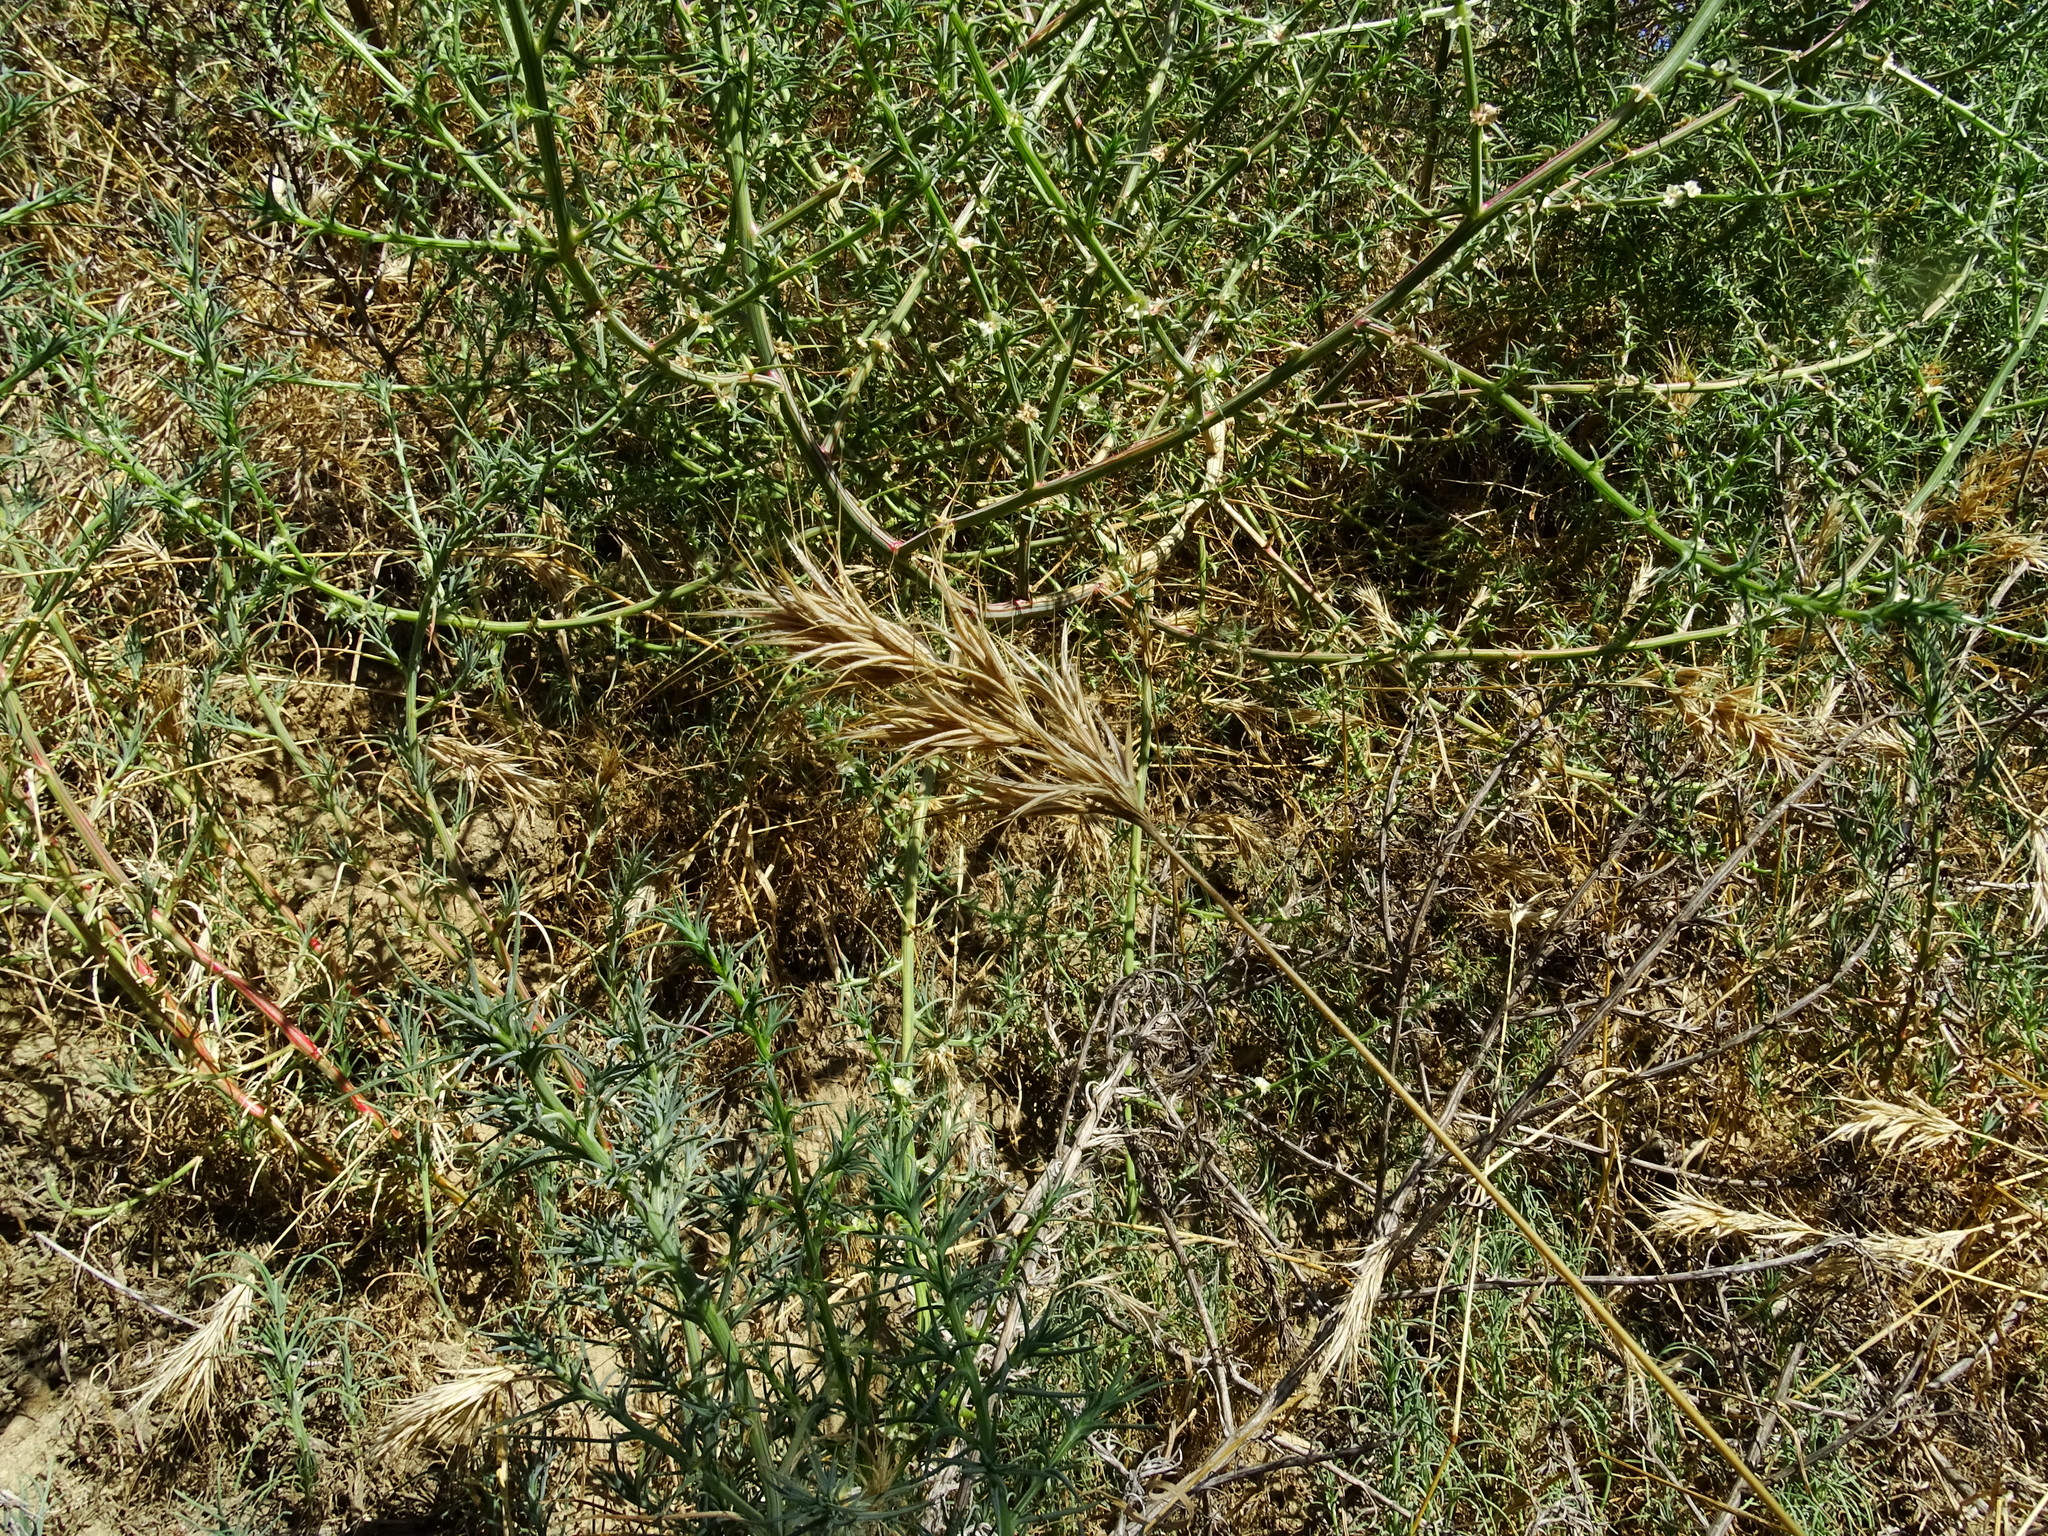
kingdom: Plantae
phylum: Tracheophyta
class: Liliopsida
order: Poales
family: Poaceae
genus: Bromus
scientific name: Bromus madritensis
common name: Compact brome
